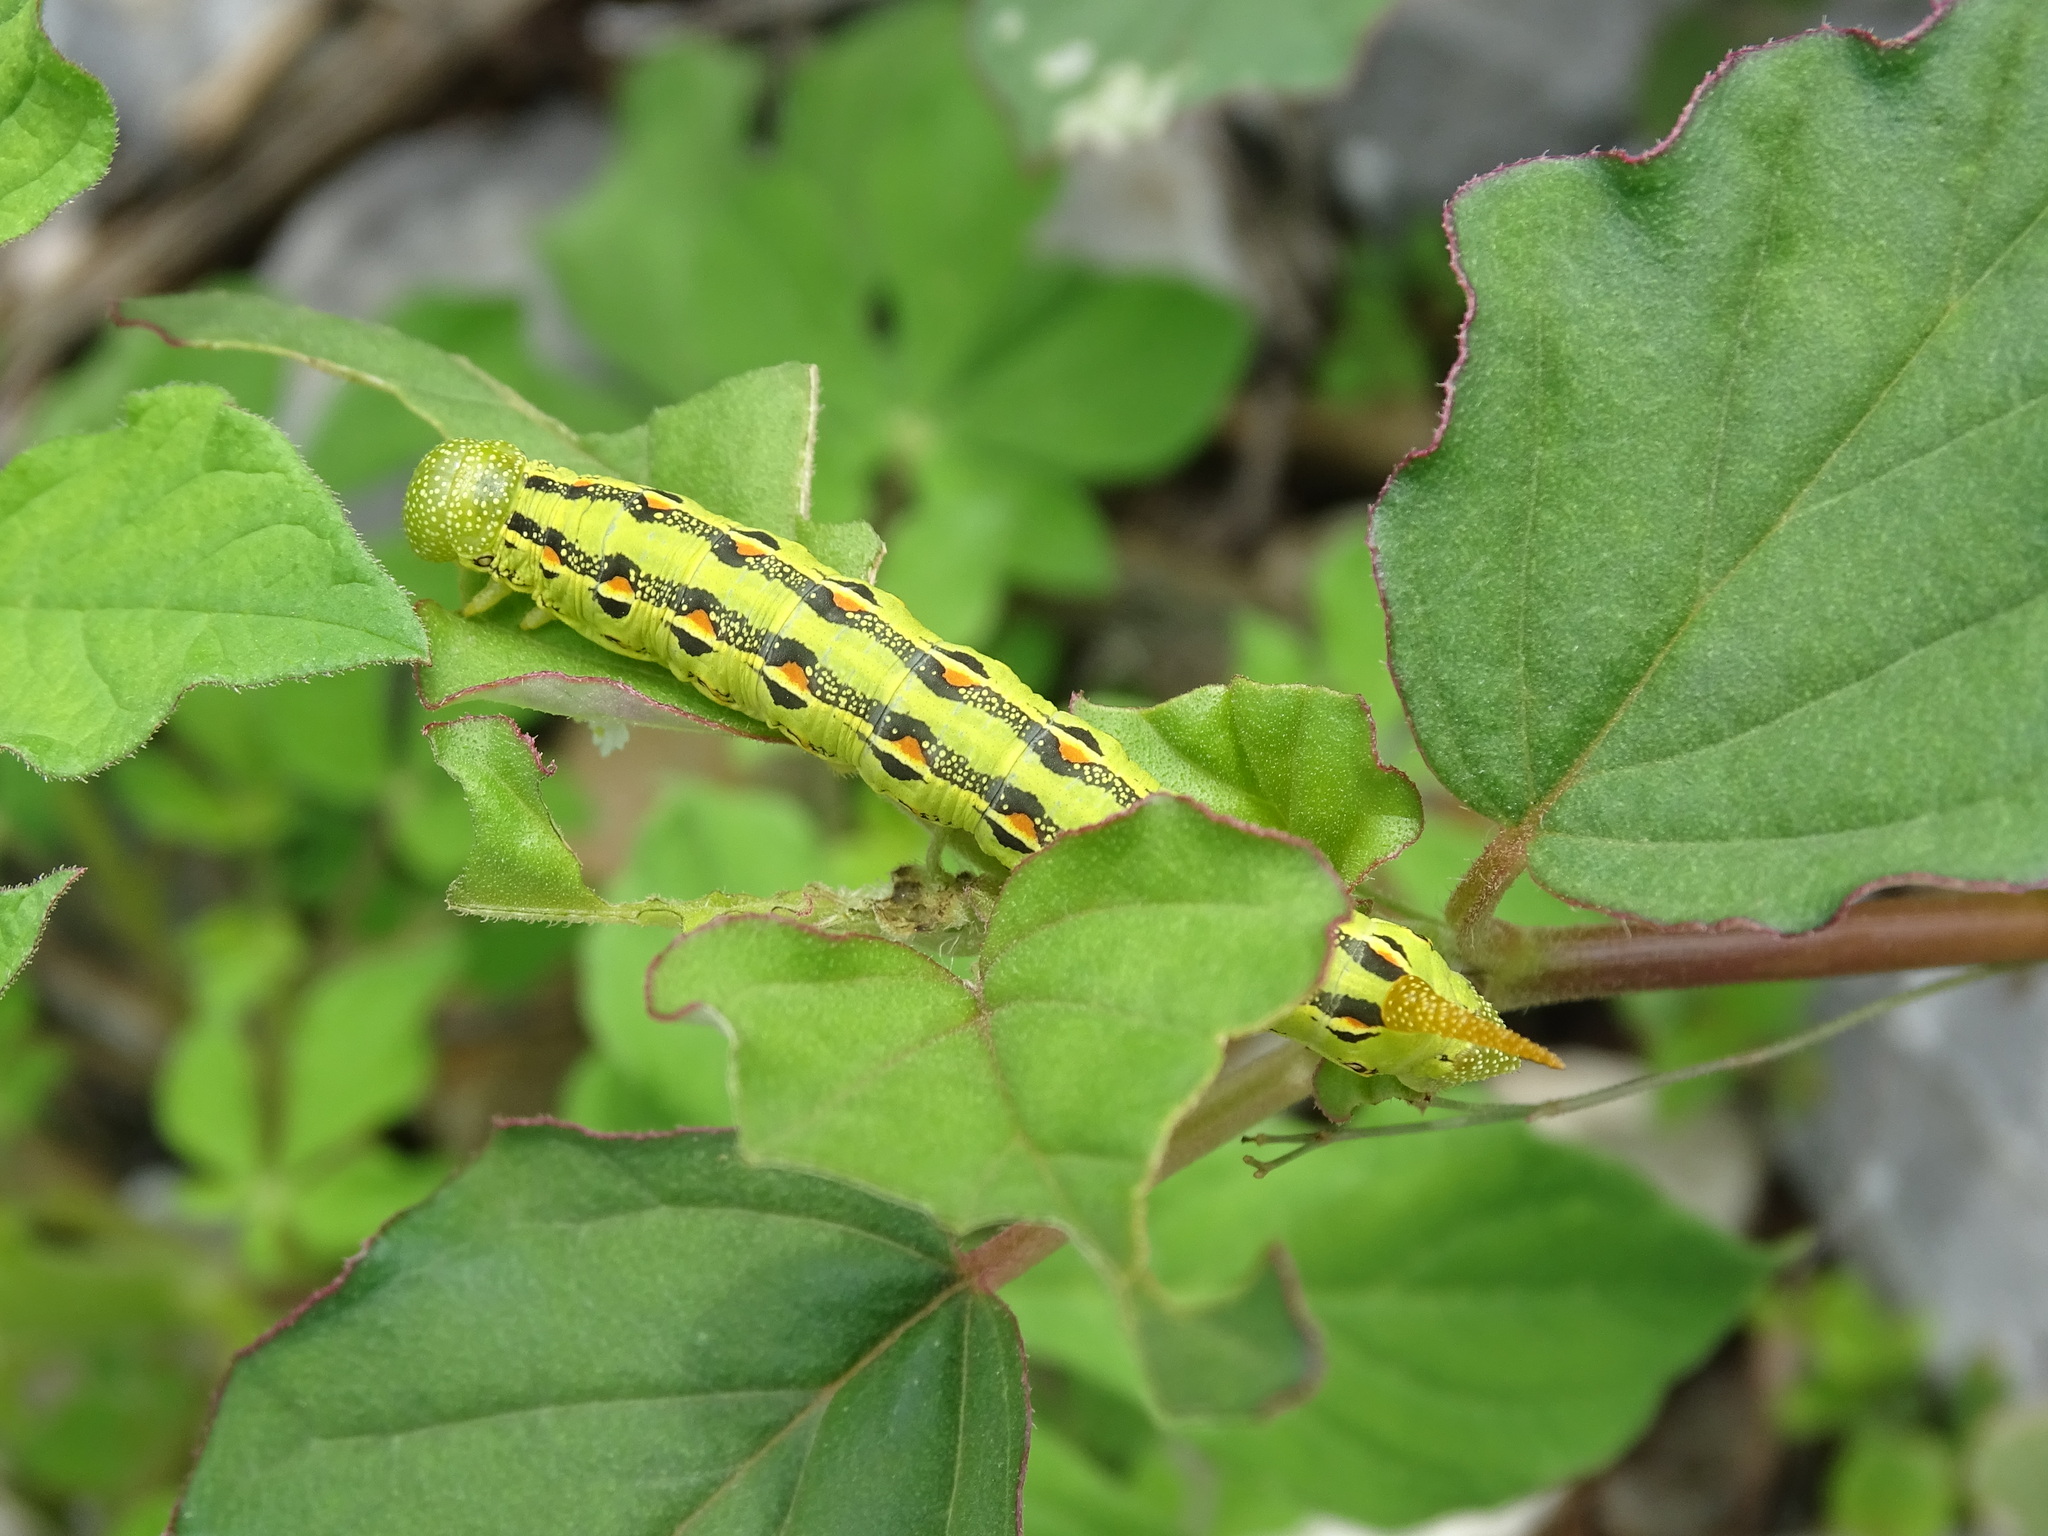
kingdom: Animalia
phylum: Arthropoda
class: Insecta
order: Lepidoptera
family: Sphingidae
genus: Hyles
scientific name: Hyles lineata
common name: White-lined sphinx
